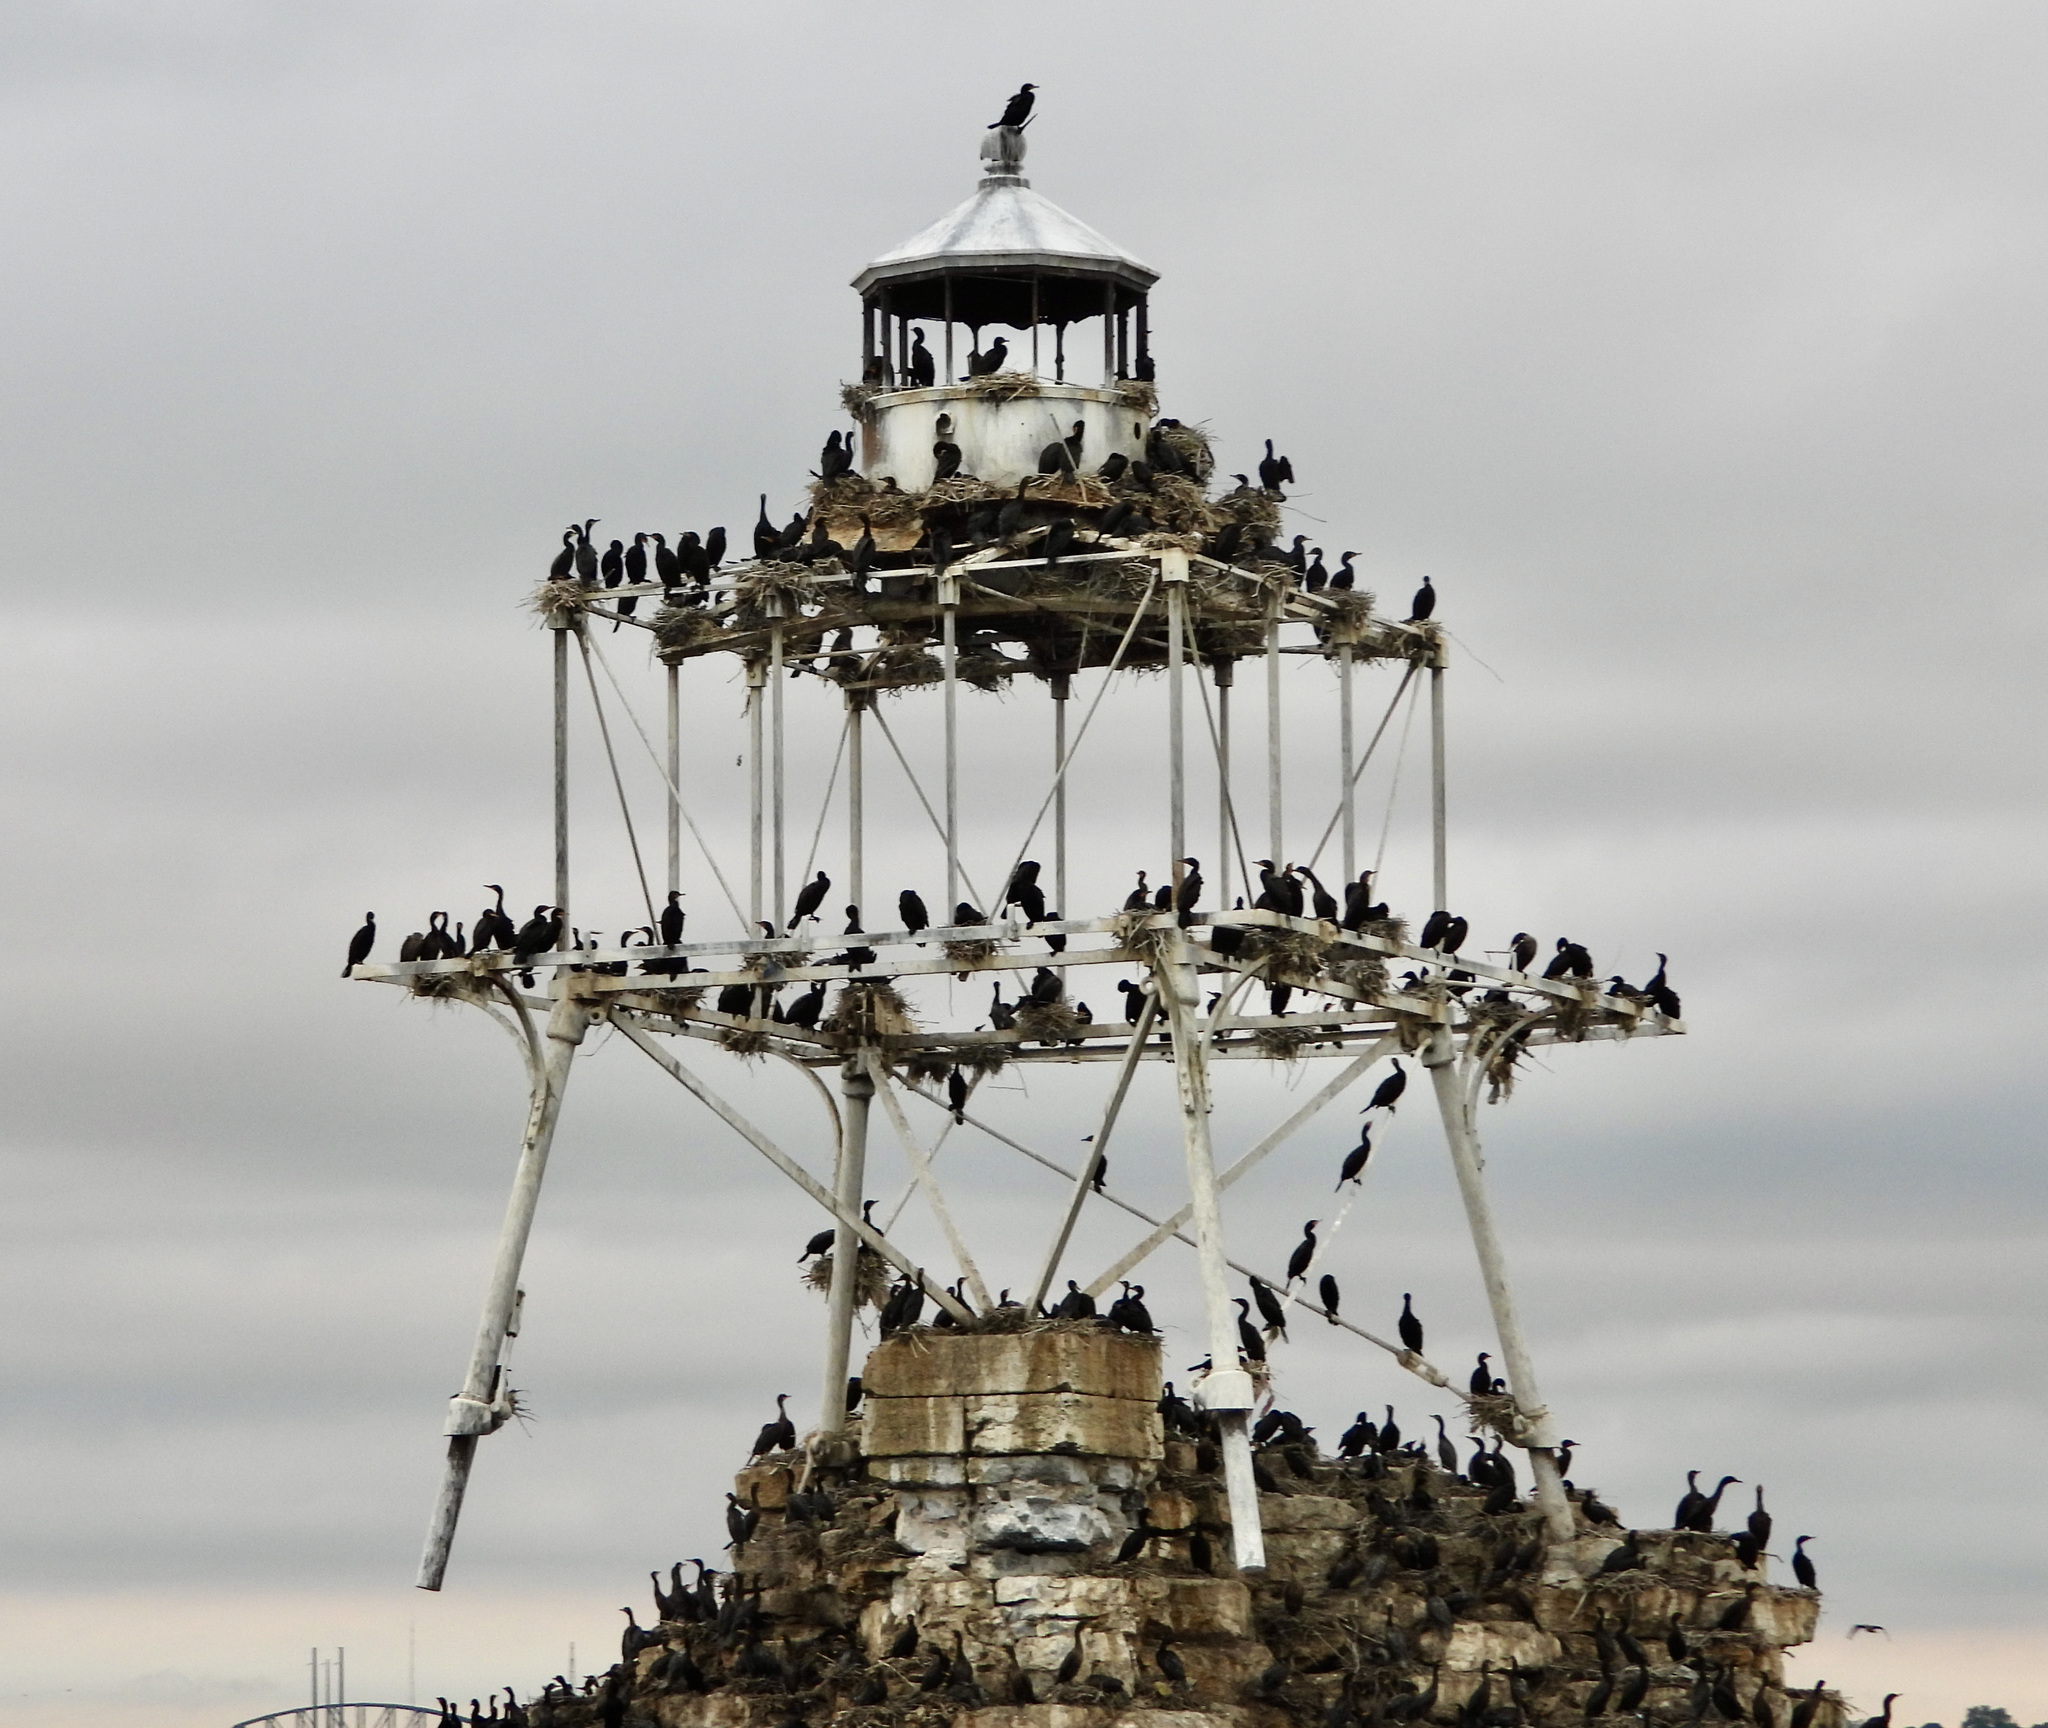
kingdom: Animalia
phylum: Chordata
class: Aves
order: Suliformes
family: Phalacrocoracidae
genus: Phalacrocorax
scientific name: Phalacrocorax auritus
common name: Double-crested cormorant
